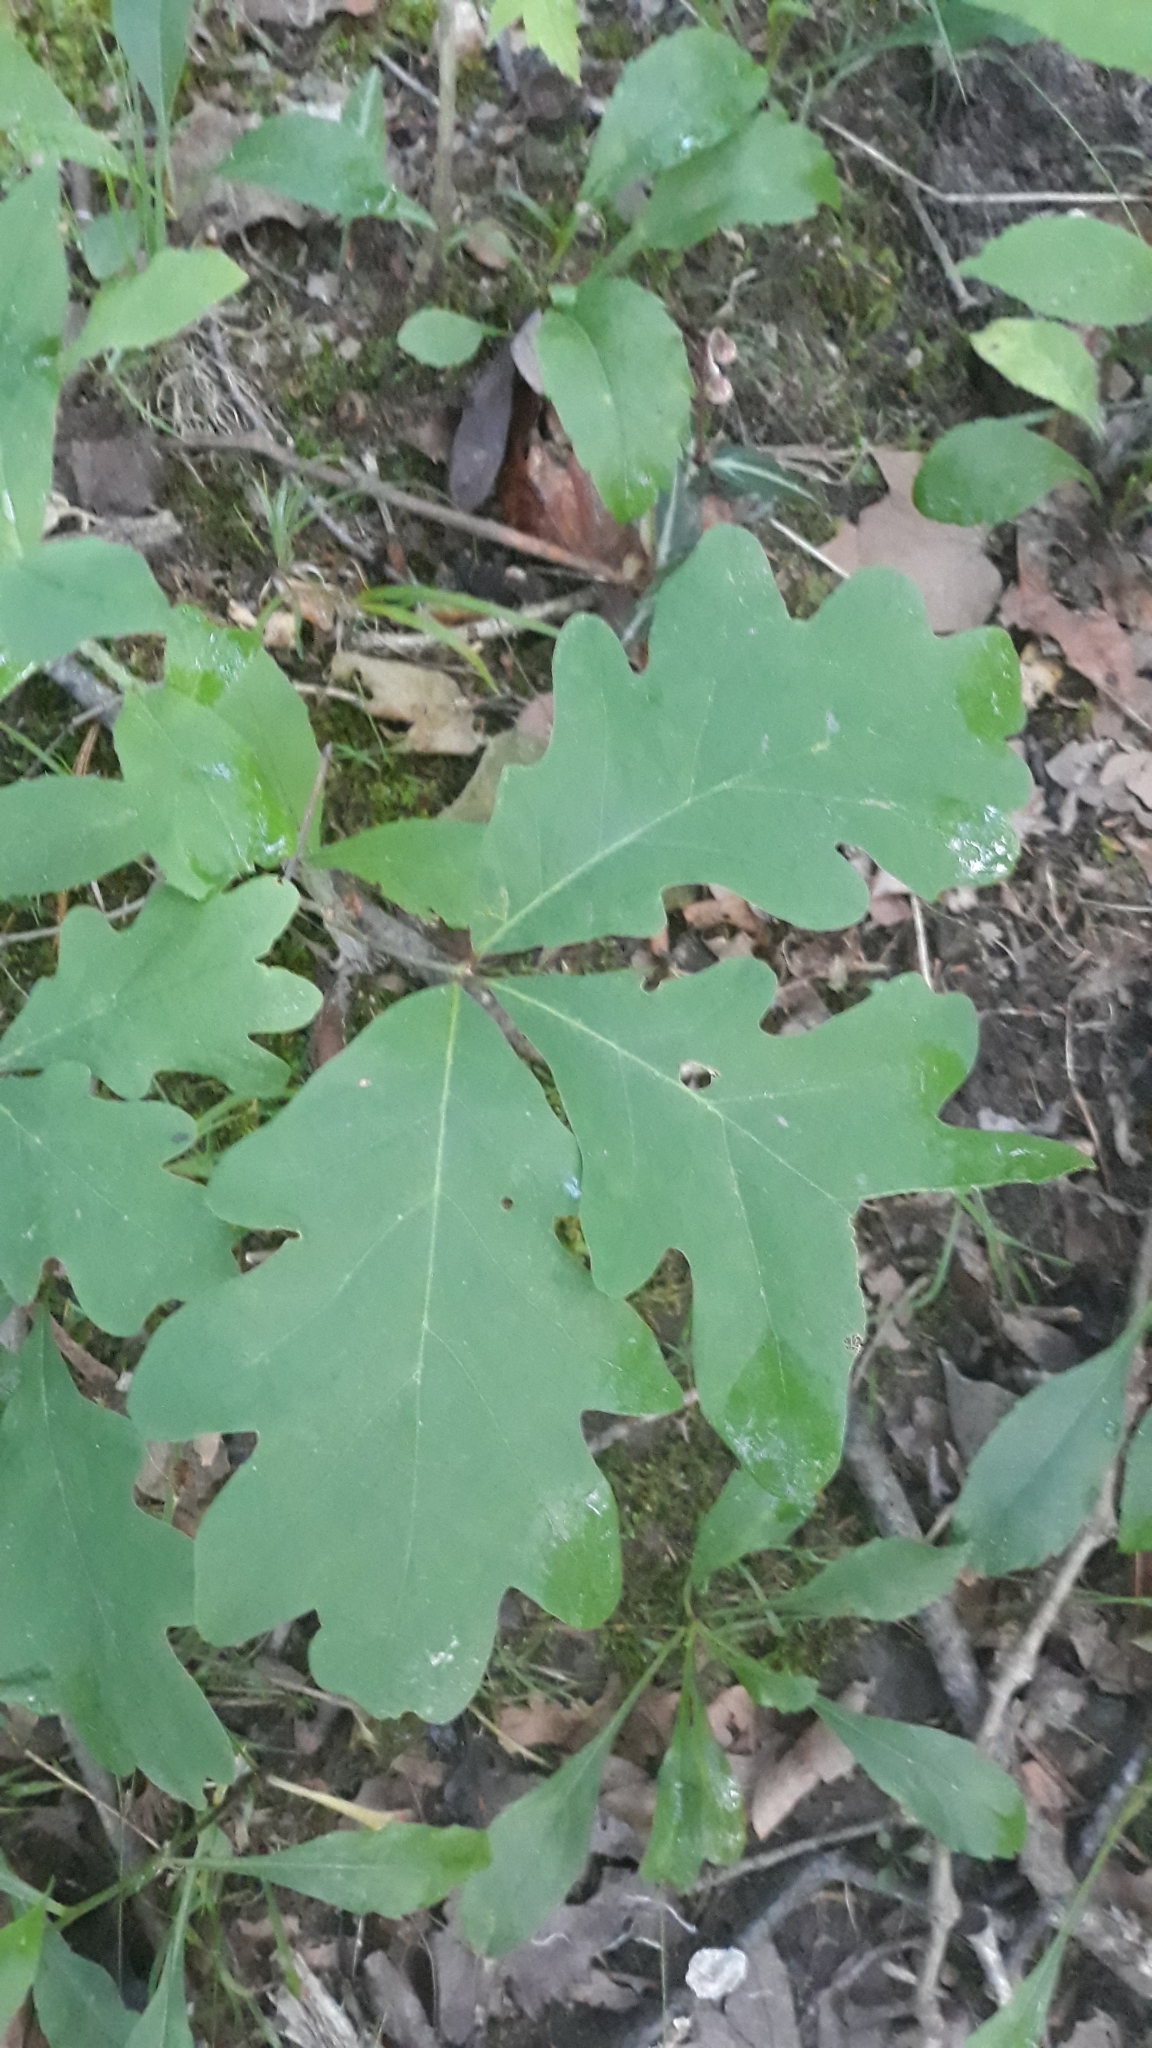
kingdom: Plantae
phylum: Tracheophyta
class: Magnoliopsida
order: Fagales
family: Fagaceae
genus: Quercus
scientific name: Quercus alba
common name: White oak
